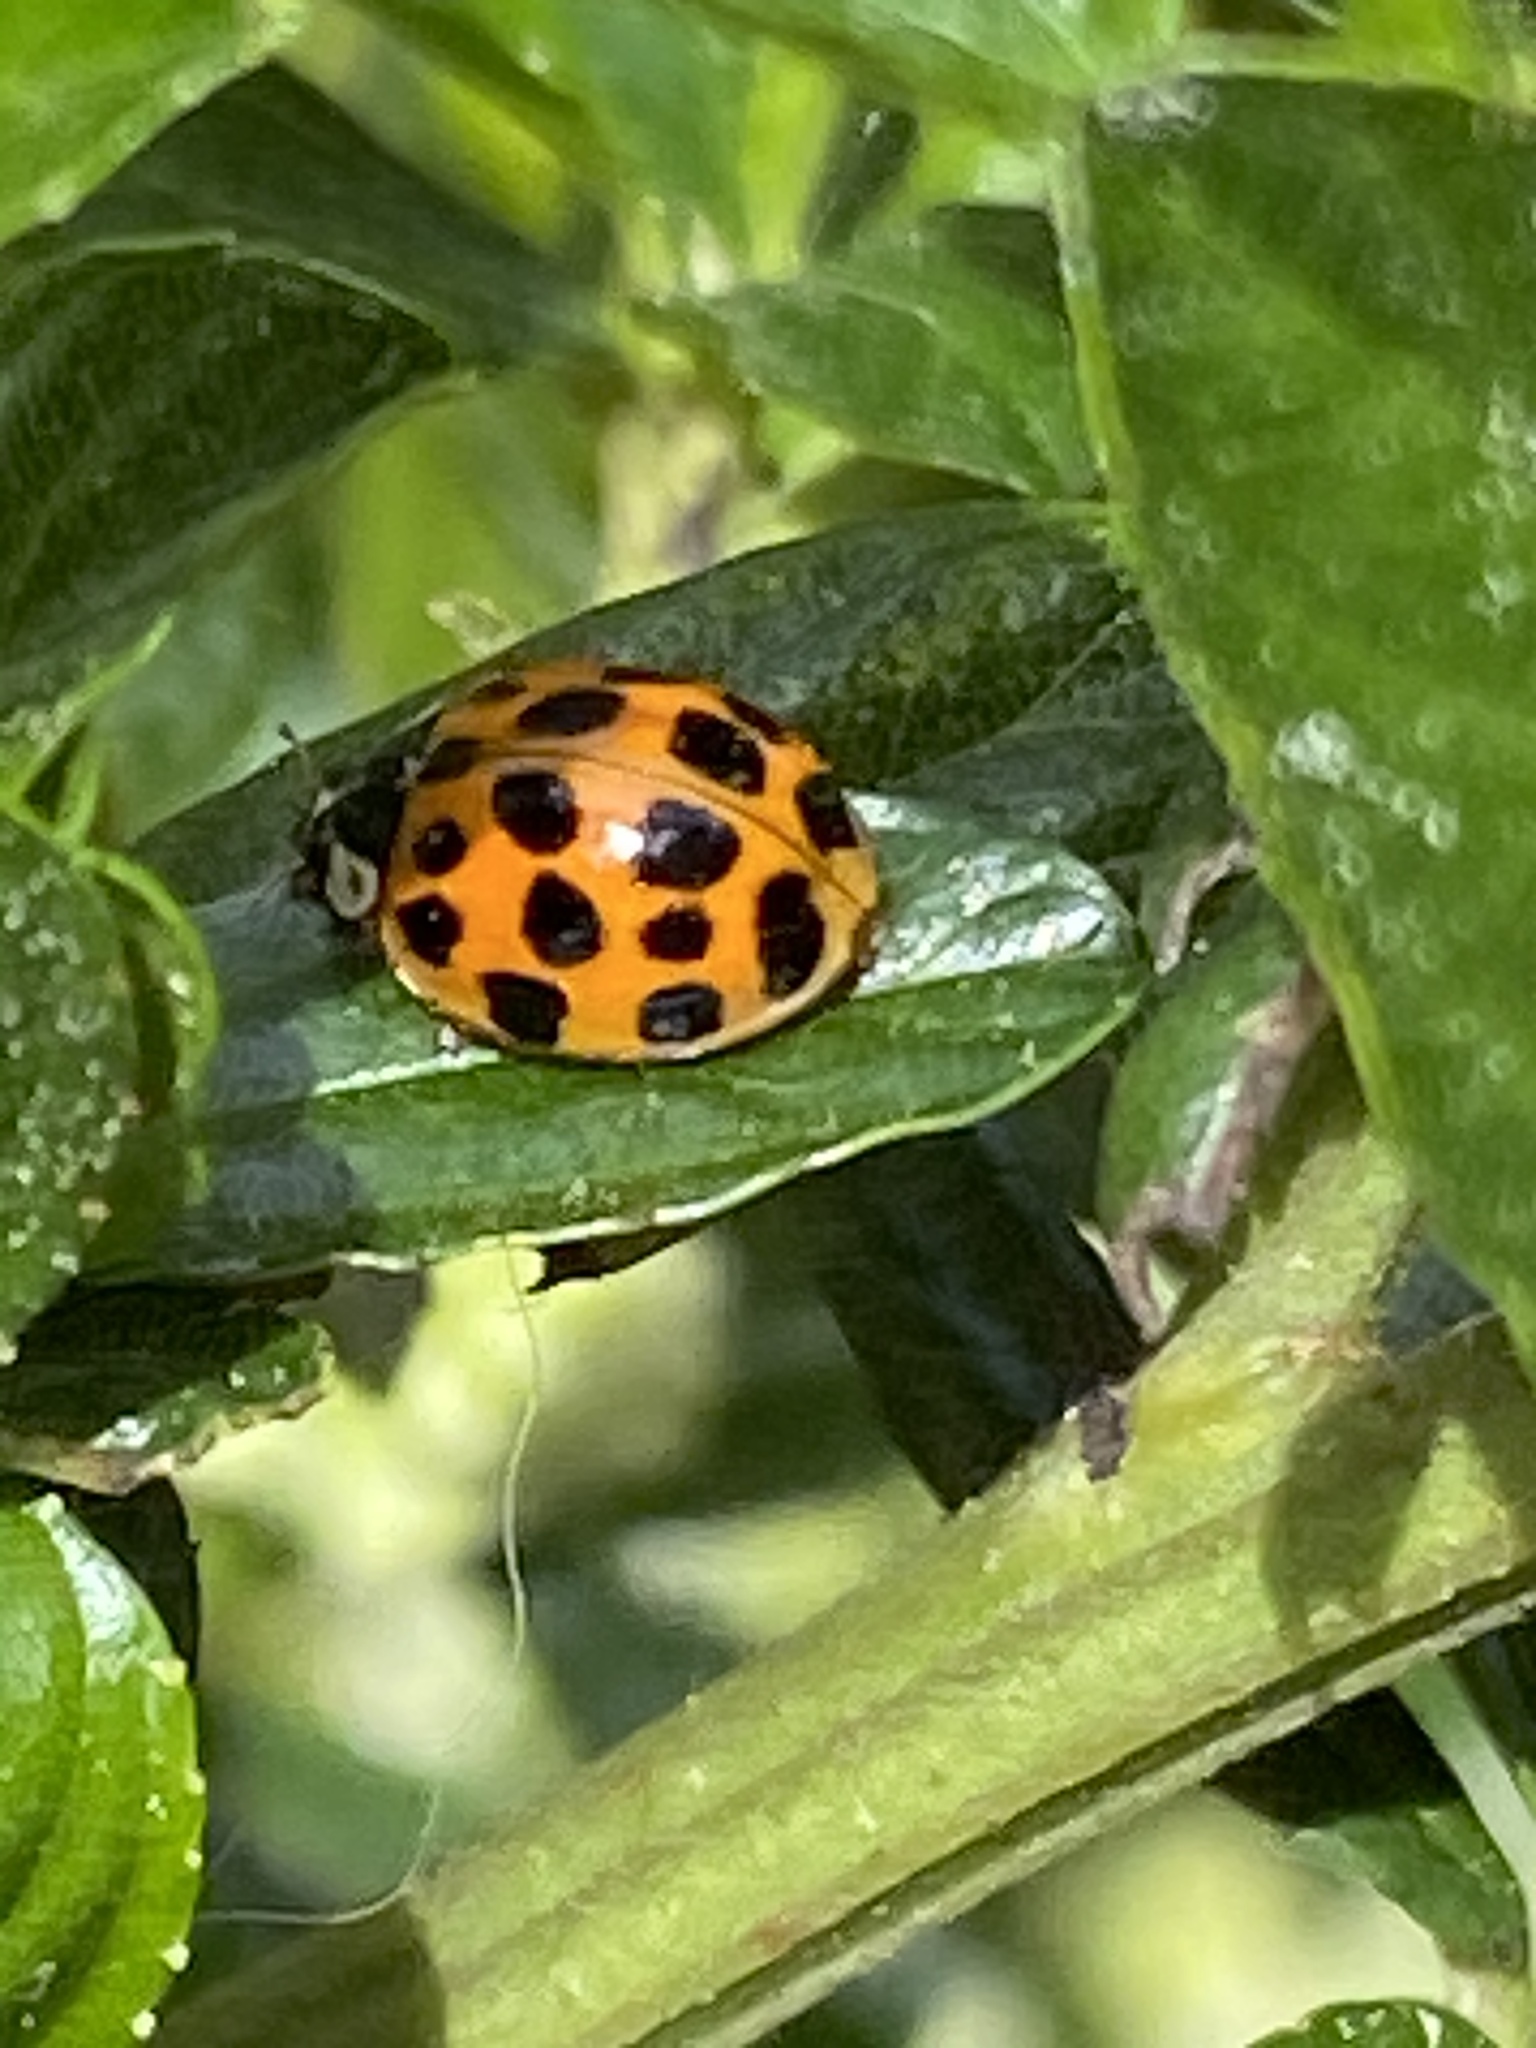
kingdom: Animalia
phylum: Arthropoda
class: Insecta
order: Coleoptera
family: Coccinellidae
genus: Harmonia
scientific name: Harmonia axyridis
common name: Harlequin ladybird
